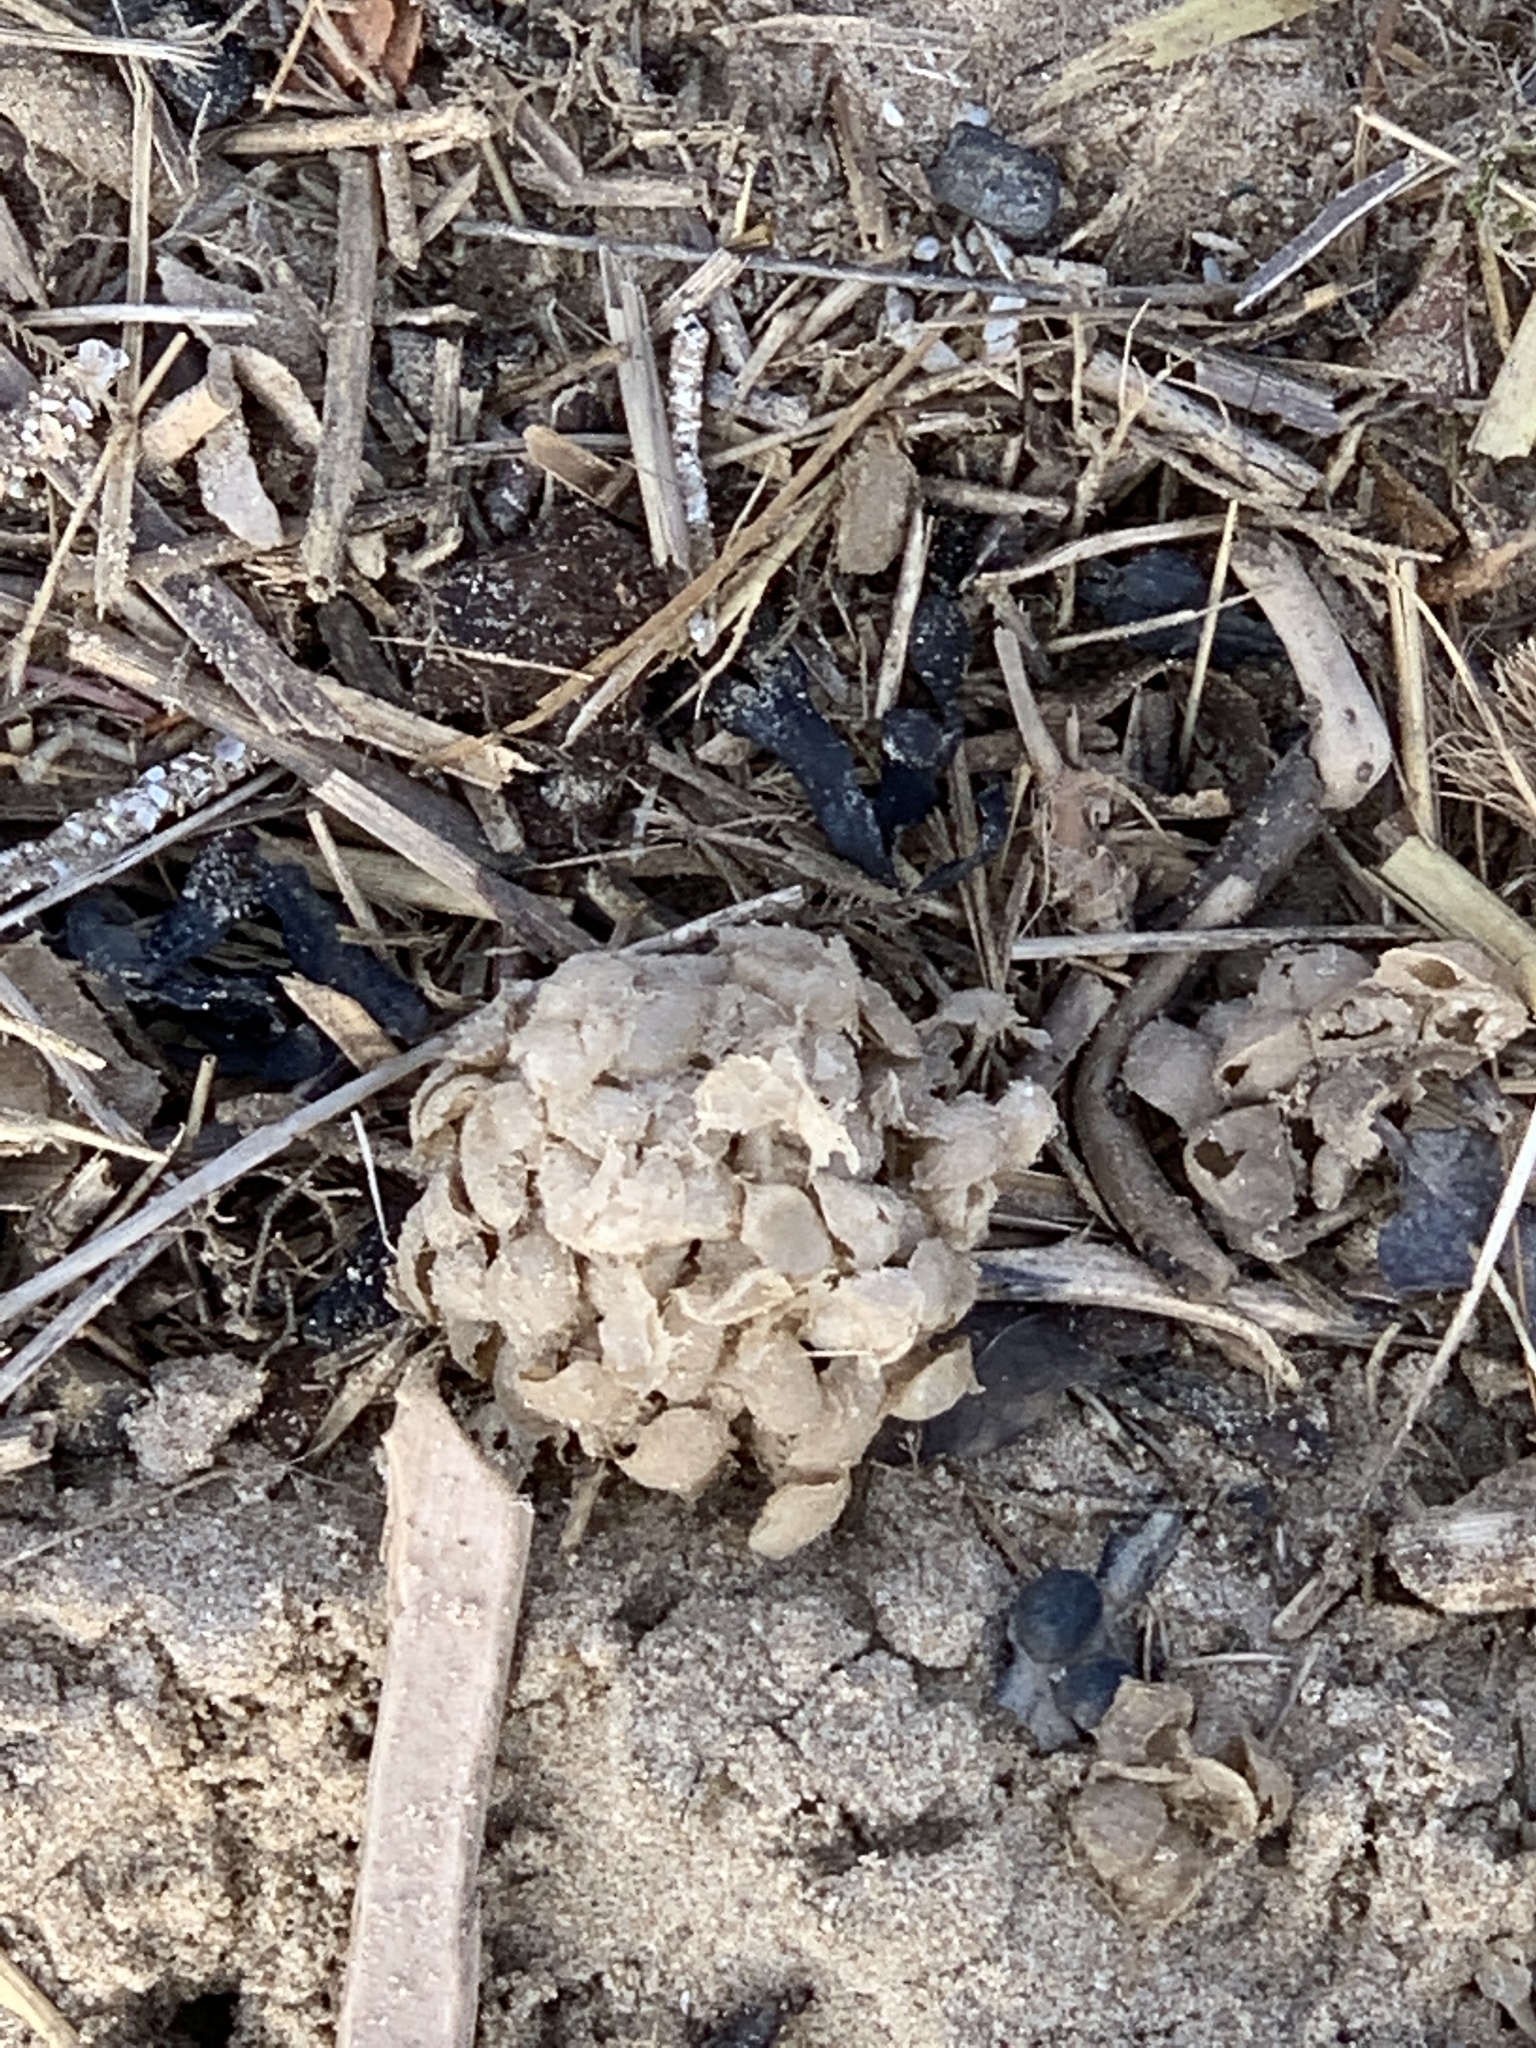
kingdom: Animalia
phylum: Mollusca
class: Gastropoda
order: Neogastropoda
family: Buccinidae
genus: Buccinum
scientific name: Buccinum undatum
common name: Common whelk
